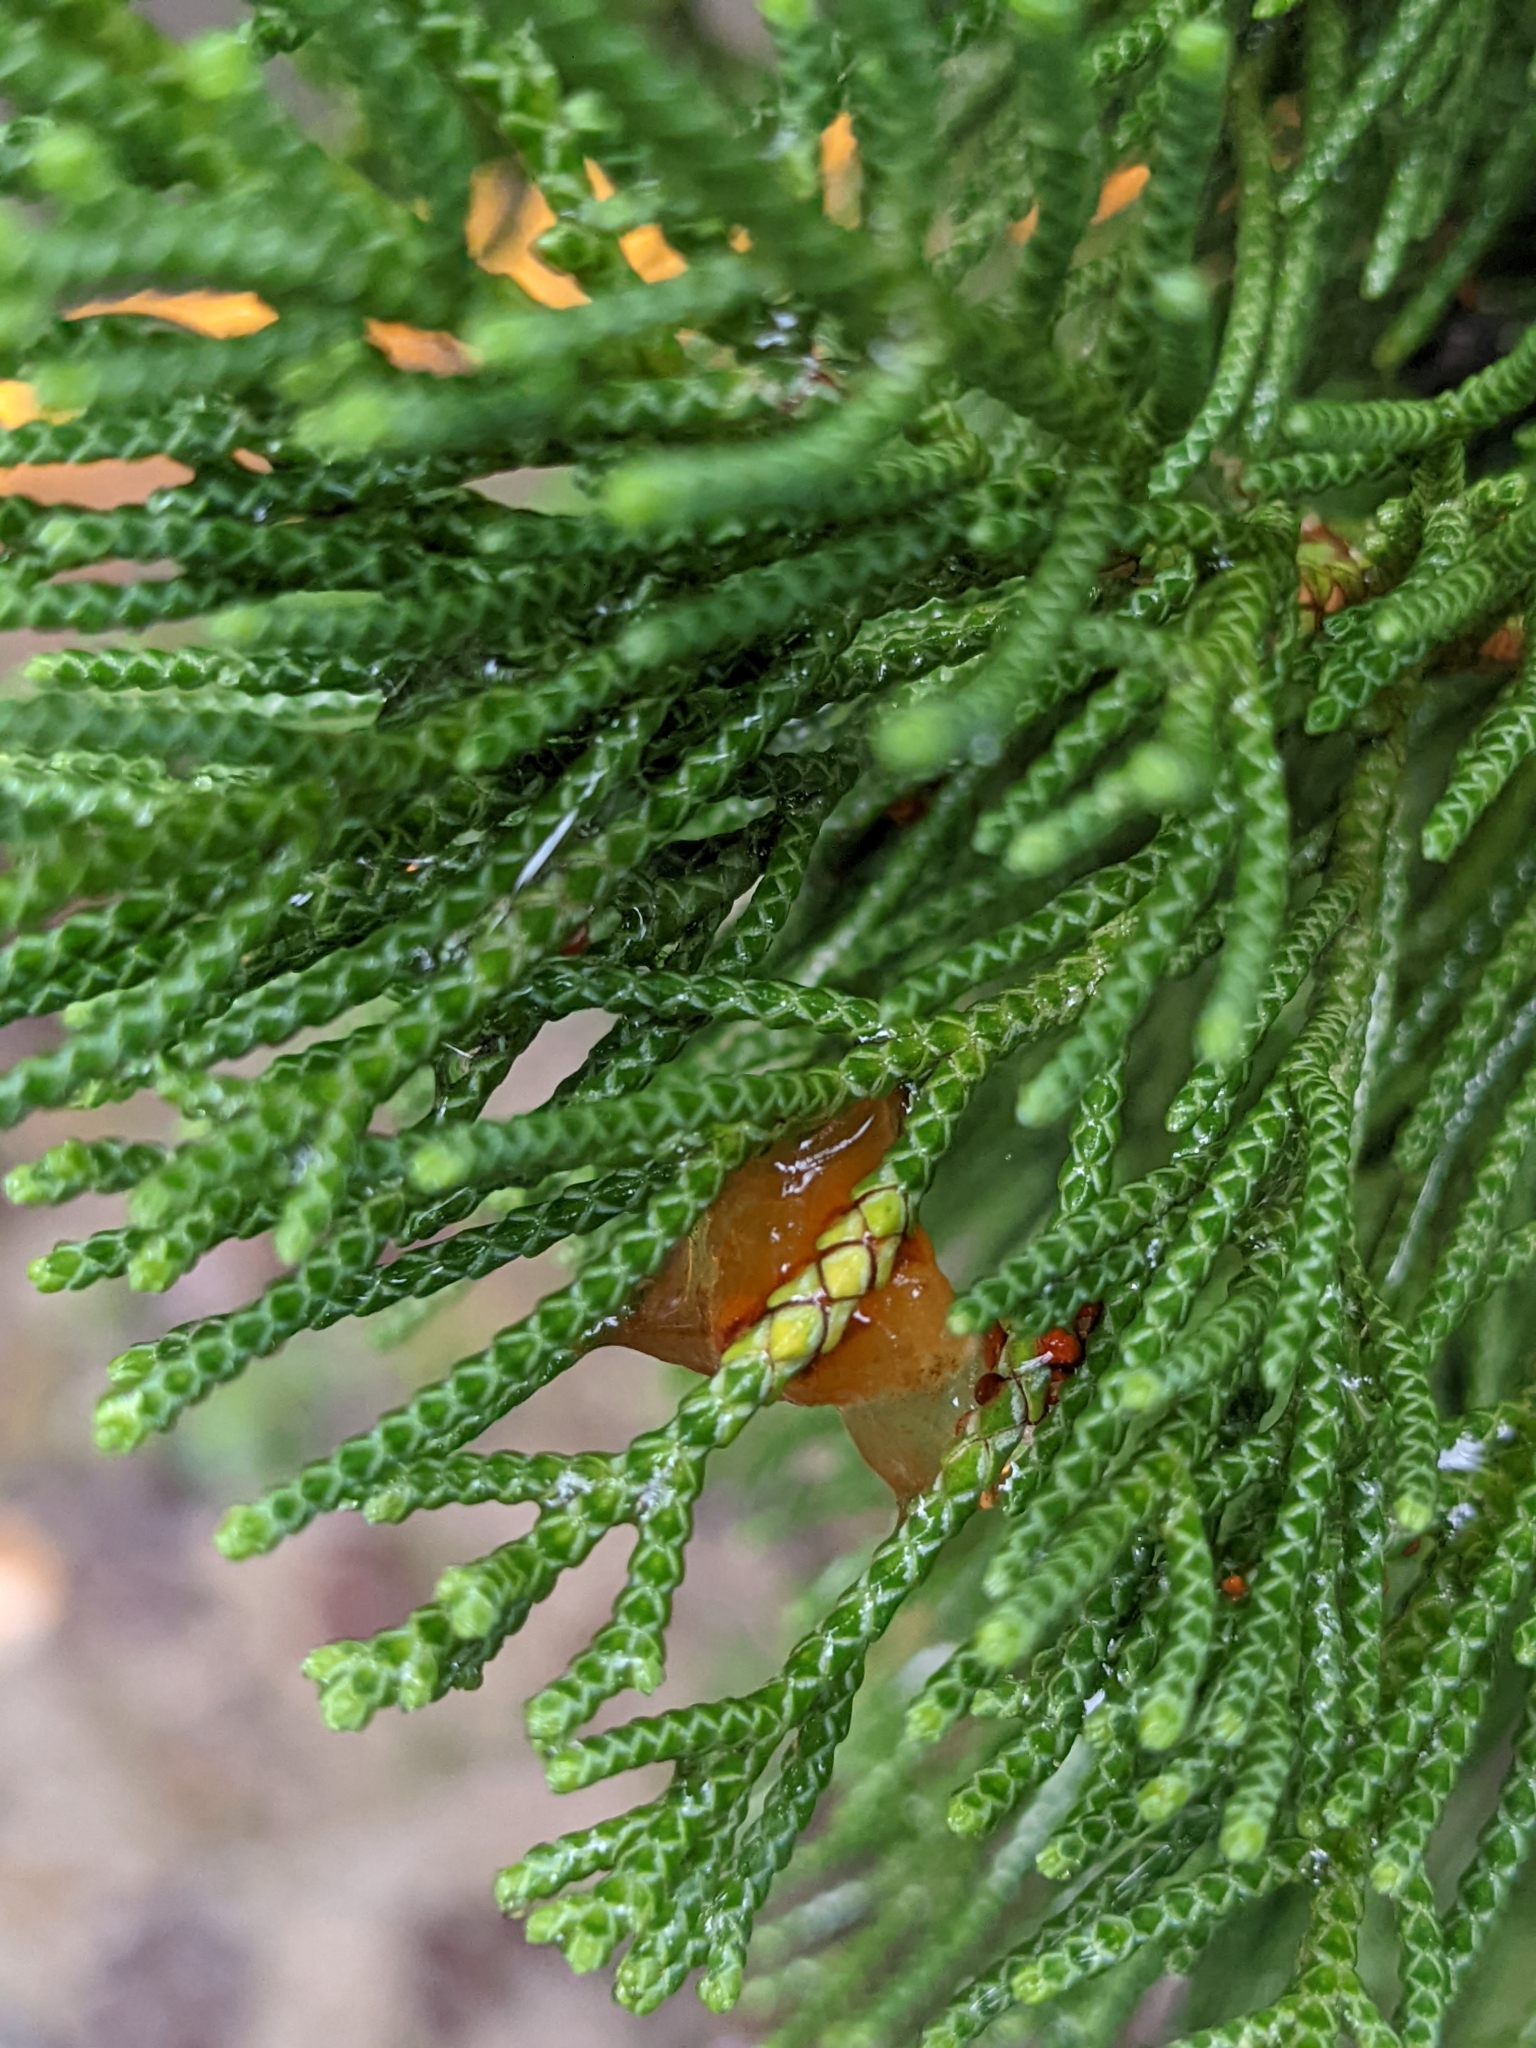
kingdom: Fungi
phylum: Basidiomycota
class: Pucciniomycetes
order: Pucciniales
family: Gymnosporangiaceae
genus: Gymnosporangium
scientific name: Gymnosporangium asiaticum
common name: Japanese pear rust
